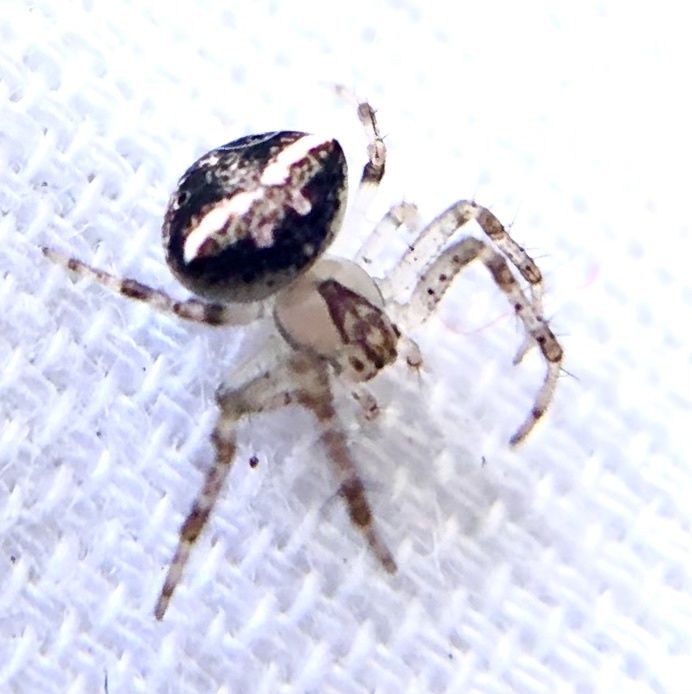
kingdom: Animalia
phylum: Arthropoda
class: Arachnida
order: Araneae
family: Araneidae
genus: Araneus
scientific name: Araneus miniatus
